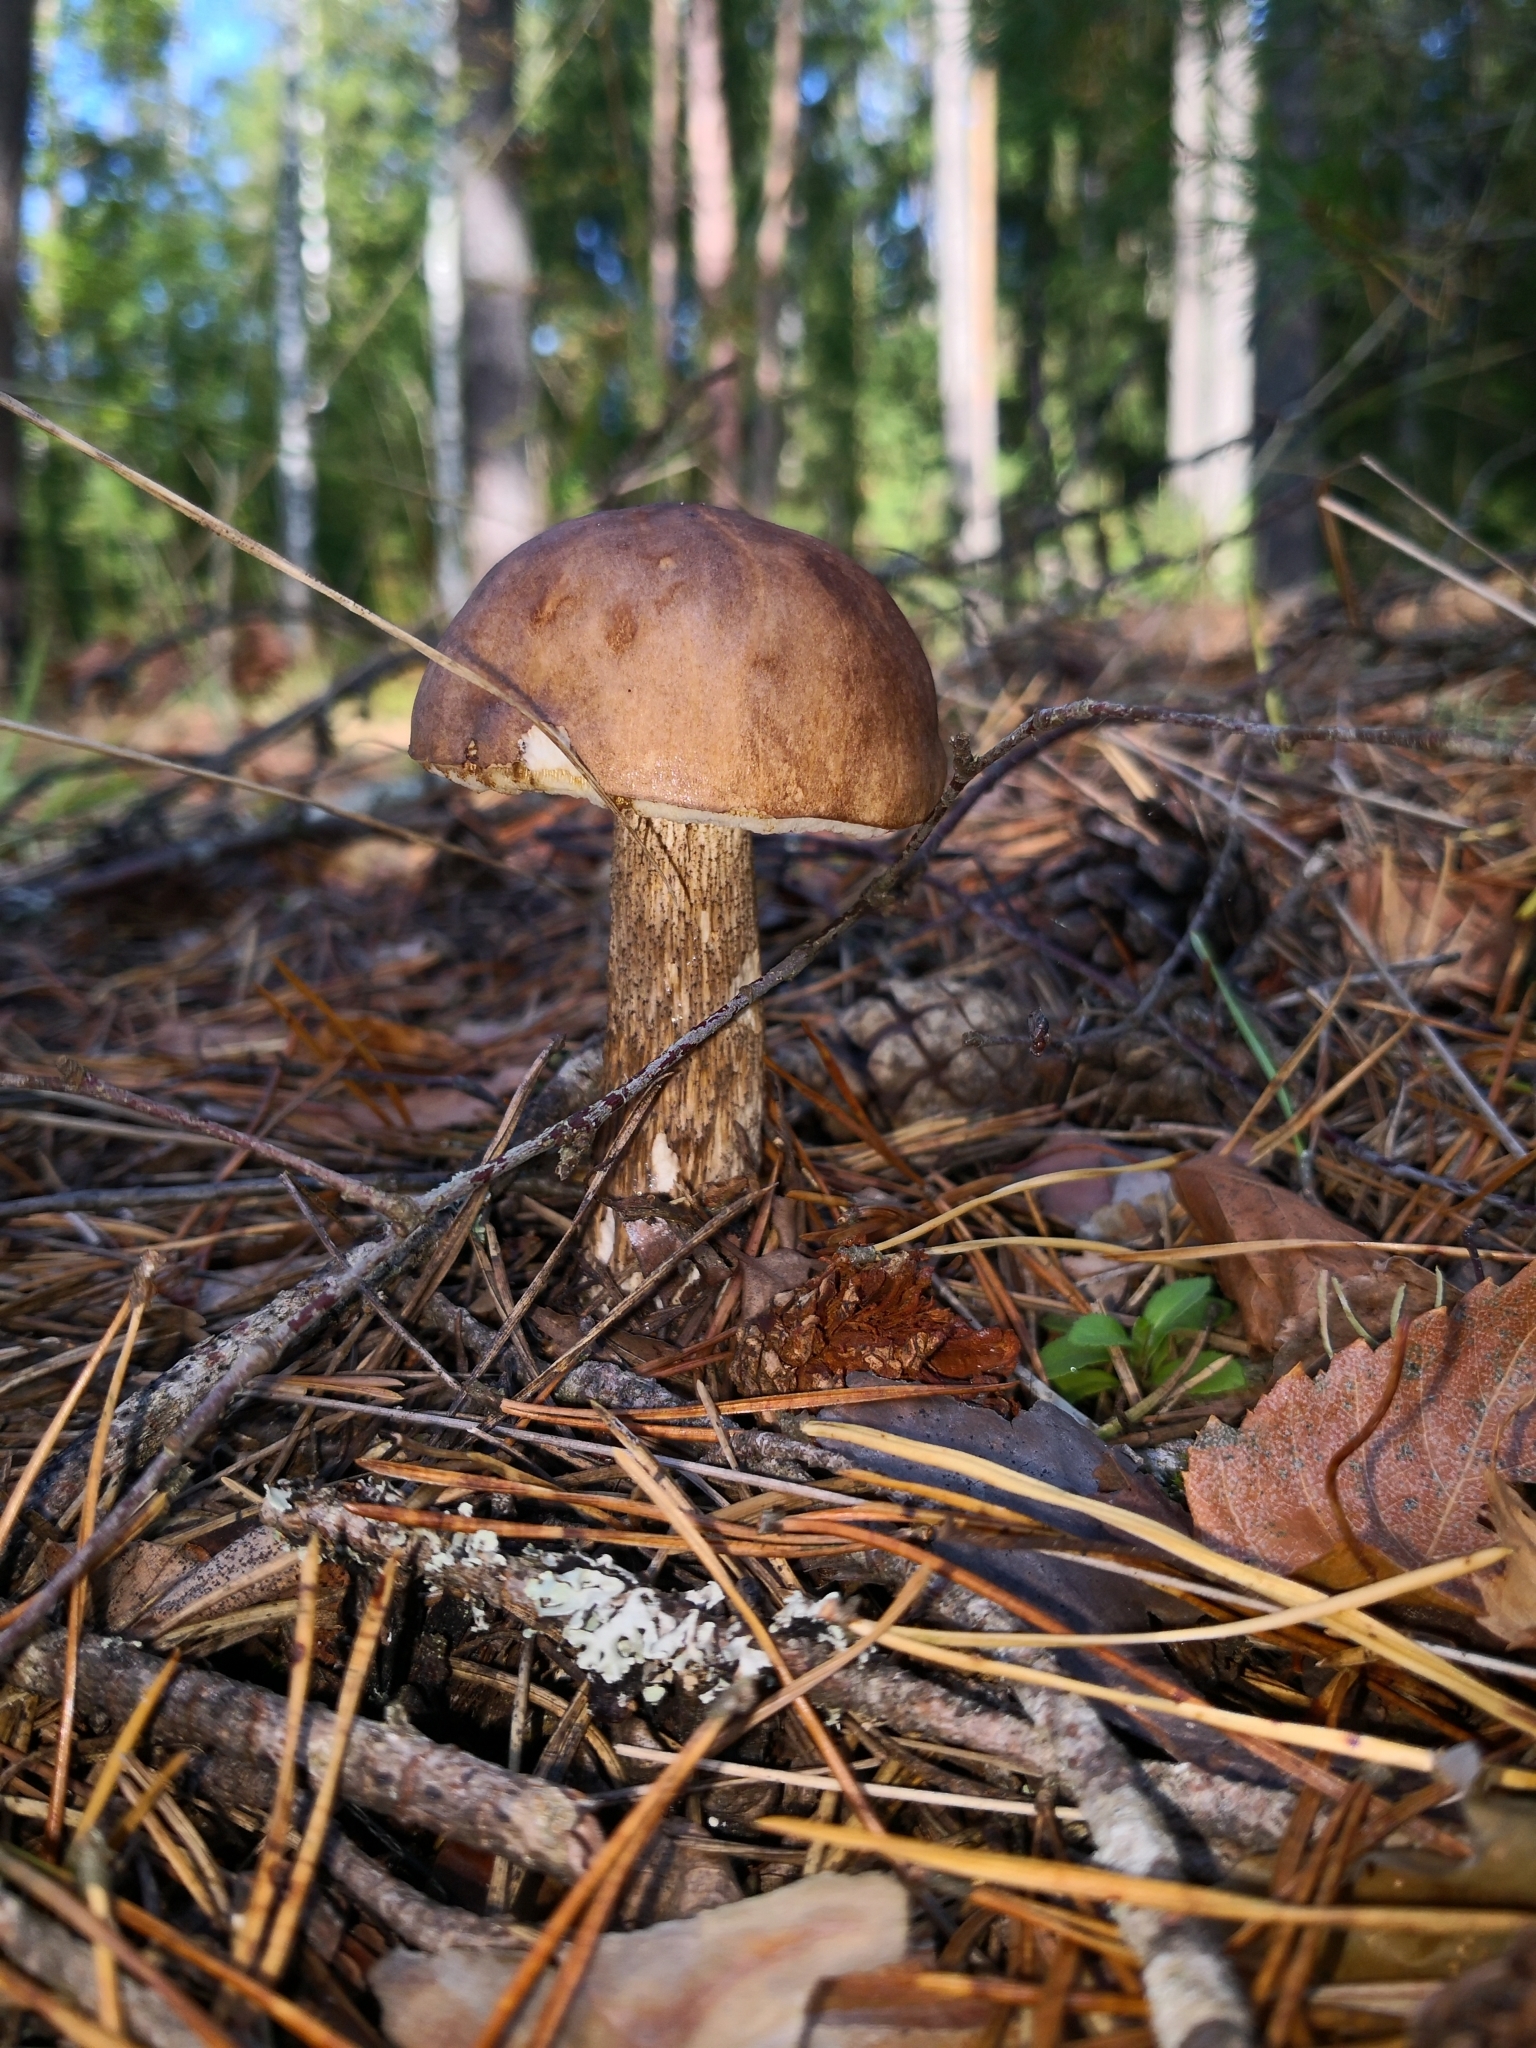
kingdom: Fungi
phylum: Basidiomycota
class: Agaricomycetes
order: Boletales
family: Boletaceae
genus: Leccinum
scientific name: Leccinum scabrum
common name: Blushing bolete
